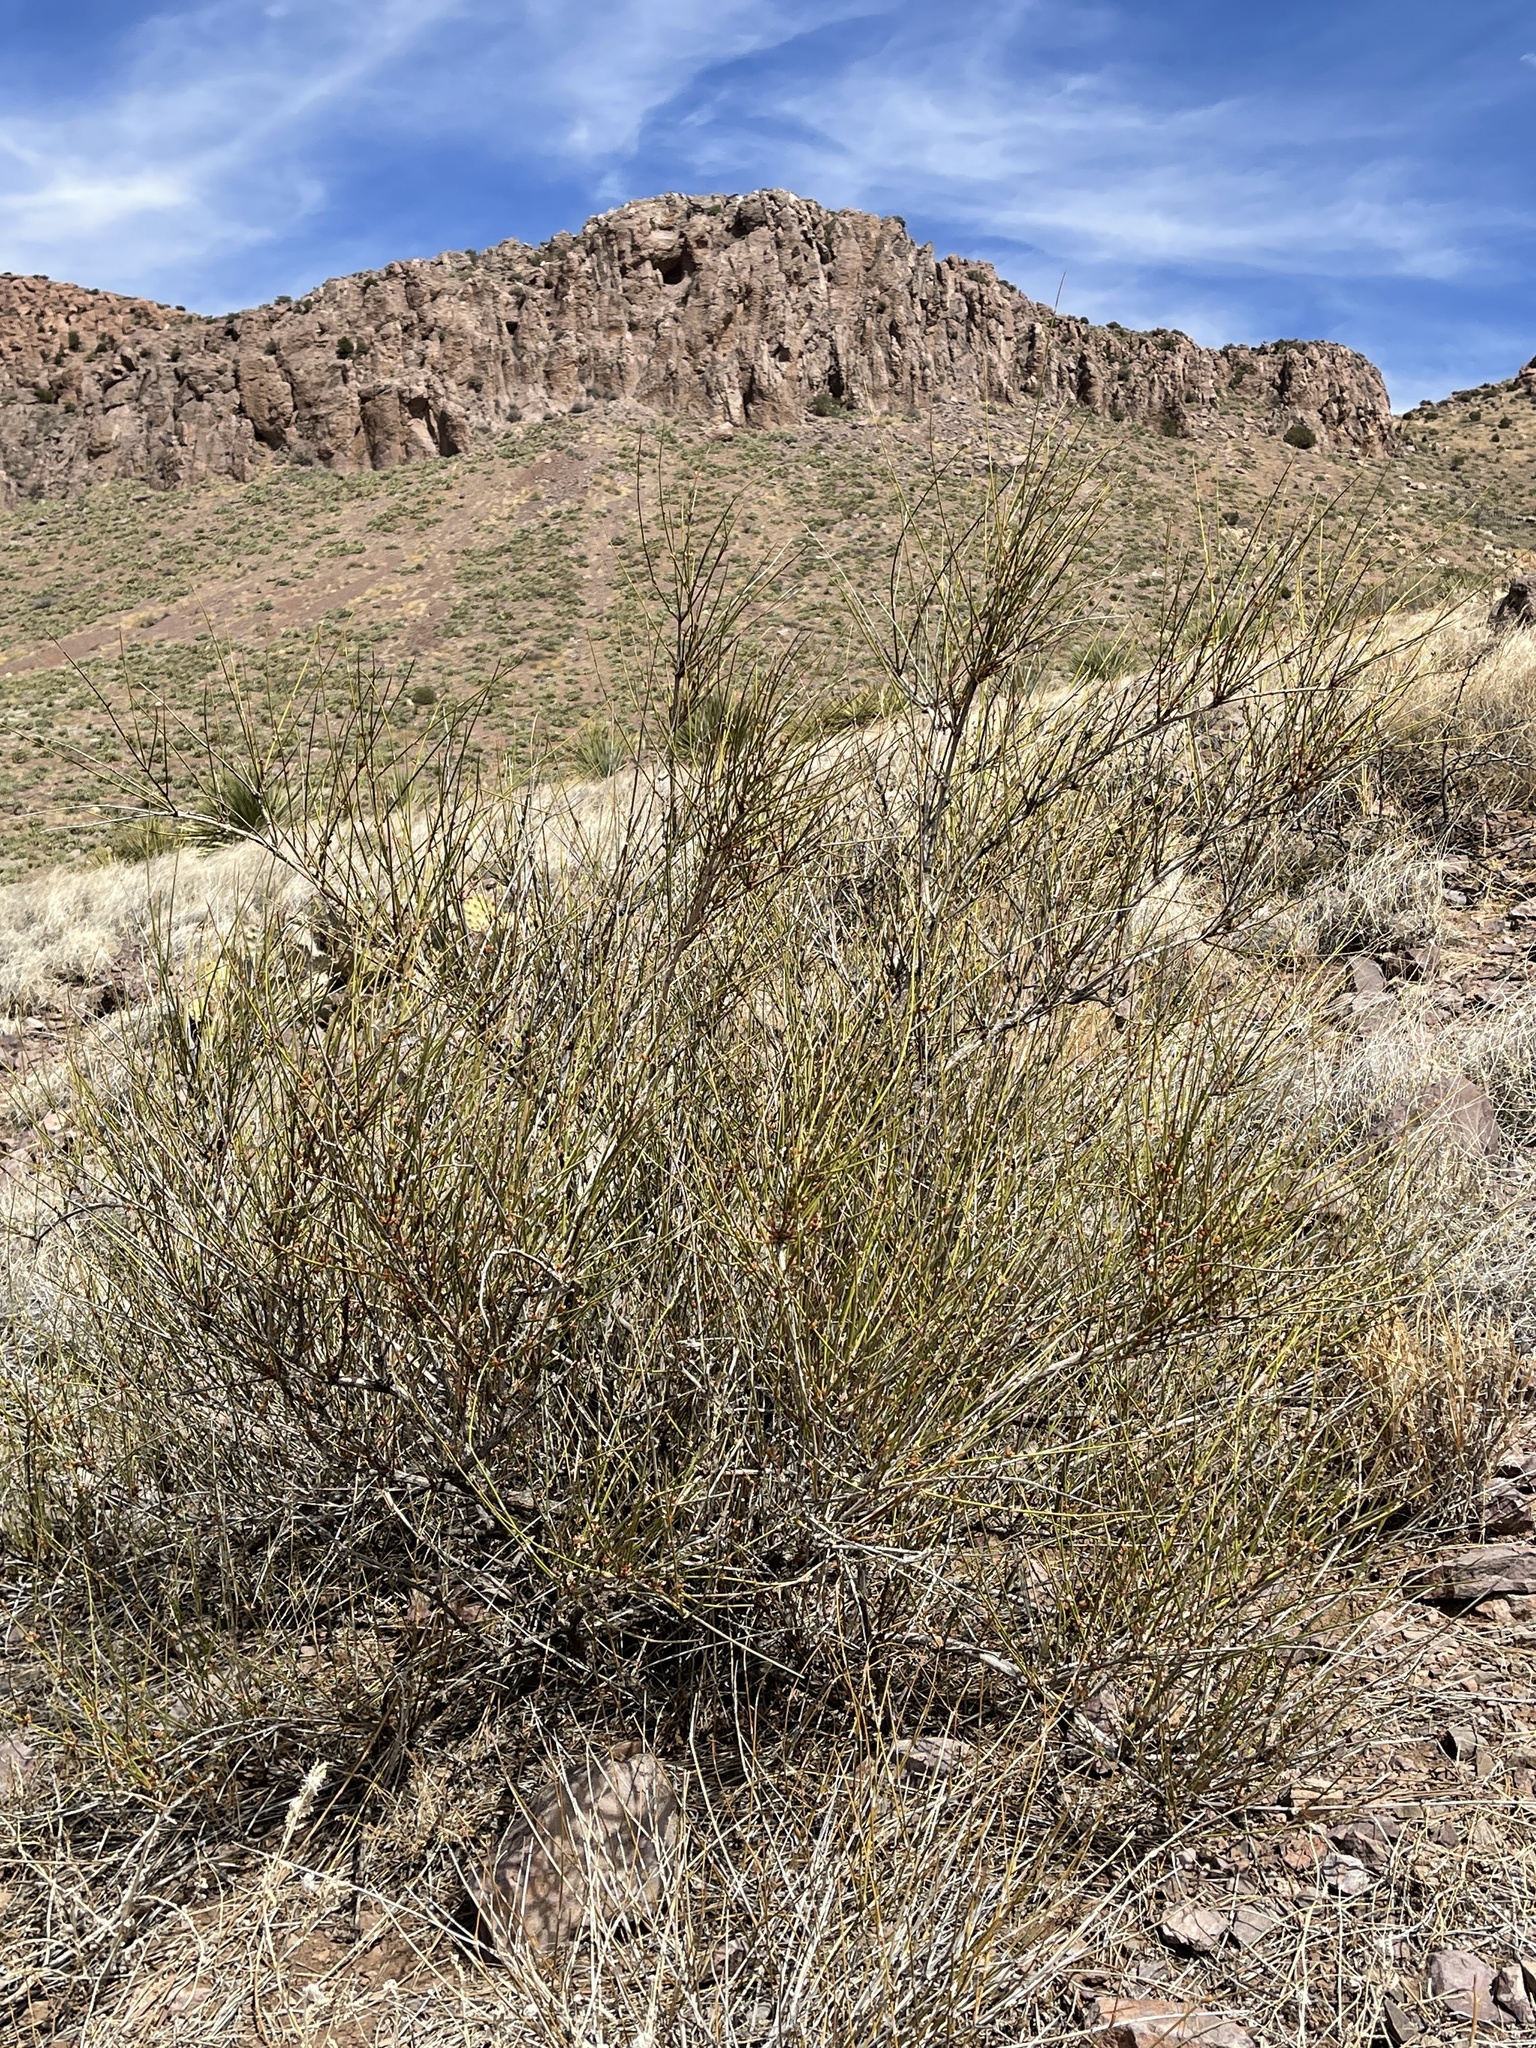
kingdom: Plantae
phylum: Tracheophyta
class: Gnetopsida
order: Ephedrales
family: Ephedraceae
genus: Ephedra
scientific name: Ephedra trifurca
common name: Mexican-tea
